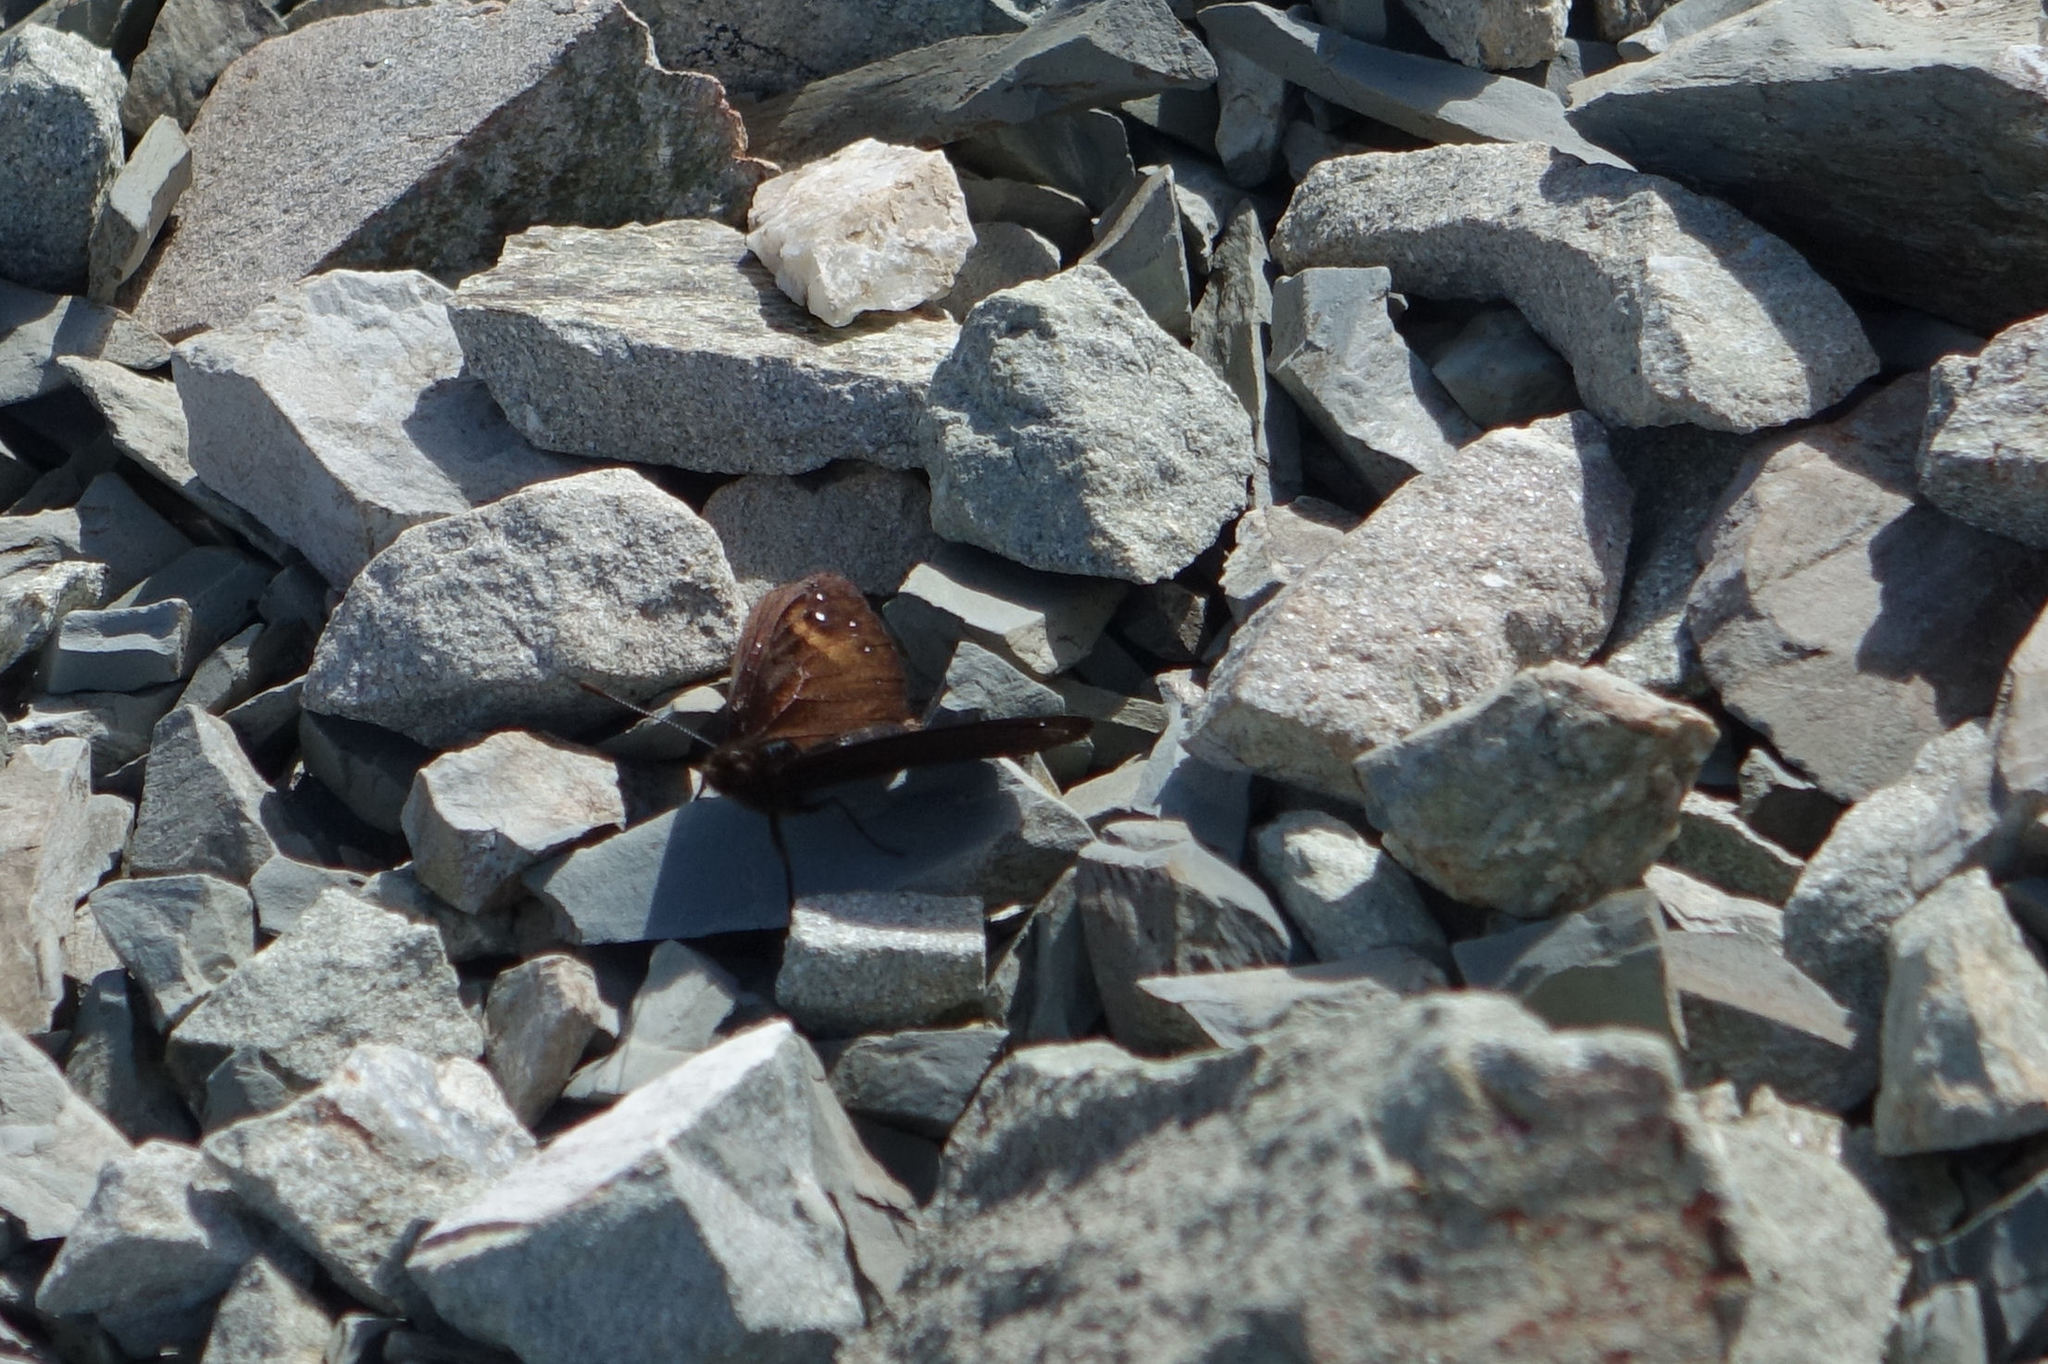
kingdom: Animalia
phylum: Arthropoda
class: Insecta
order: Lepidoptera
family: Nymphalidae
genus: Erebia
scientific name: Erebia Percnodaimon merula
